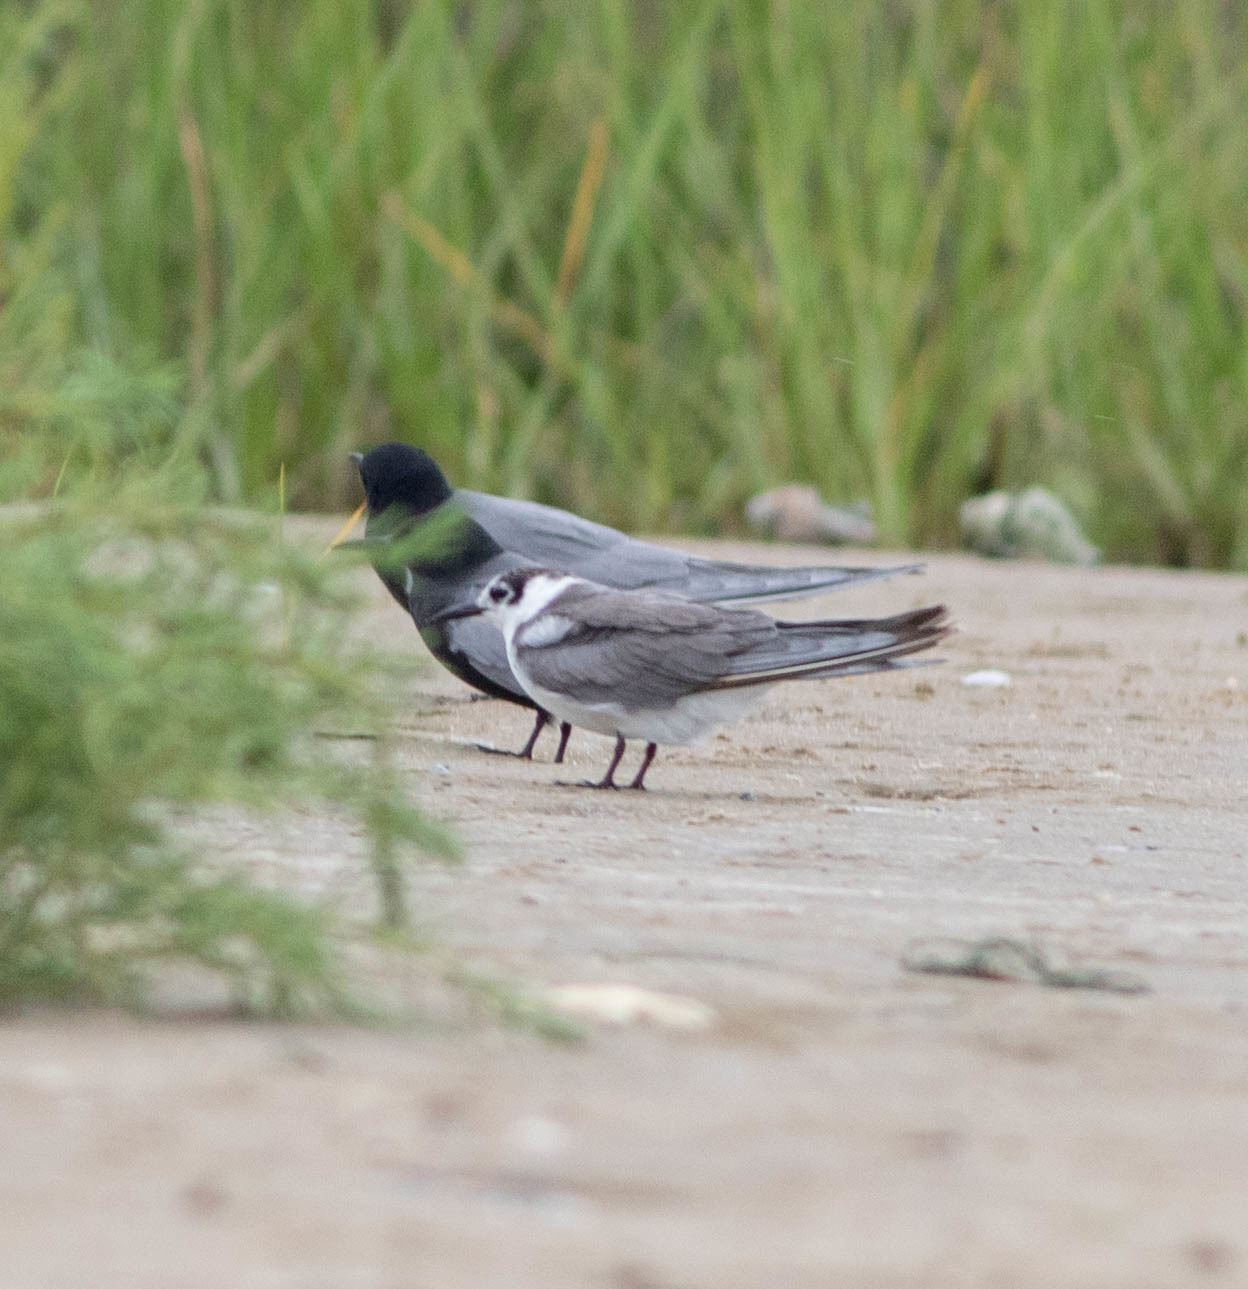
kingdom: Animalia
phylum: Chordata
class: Aves
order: Charadriiformes
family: Laridae
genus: Chlidonias
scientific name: Chlidonias niger
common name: Black tern
